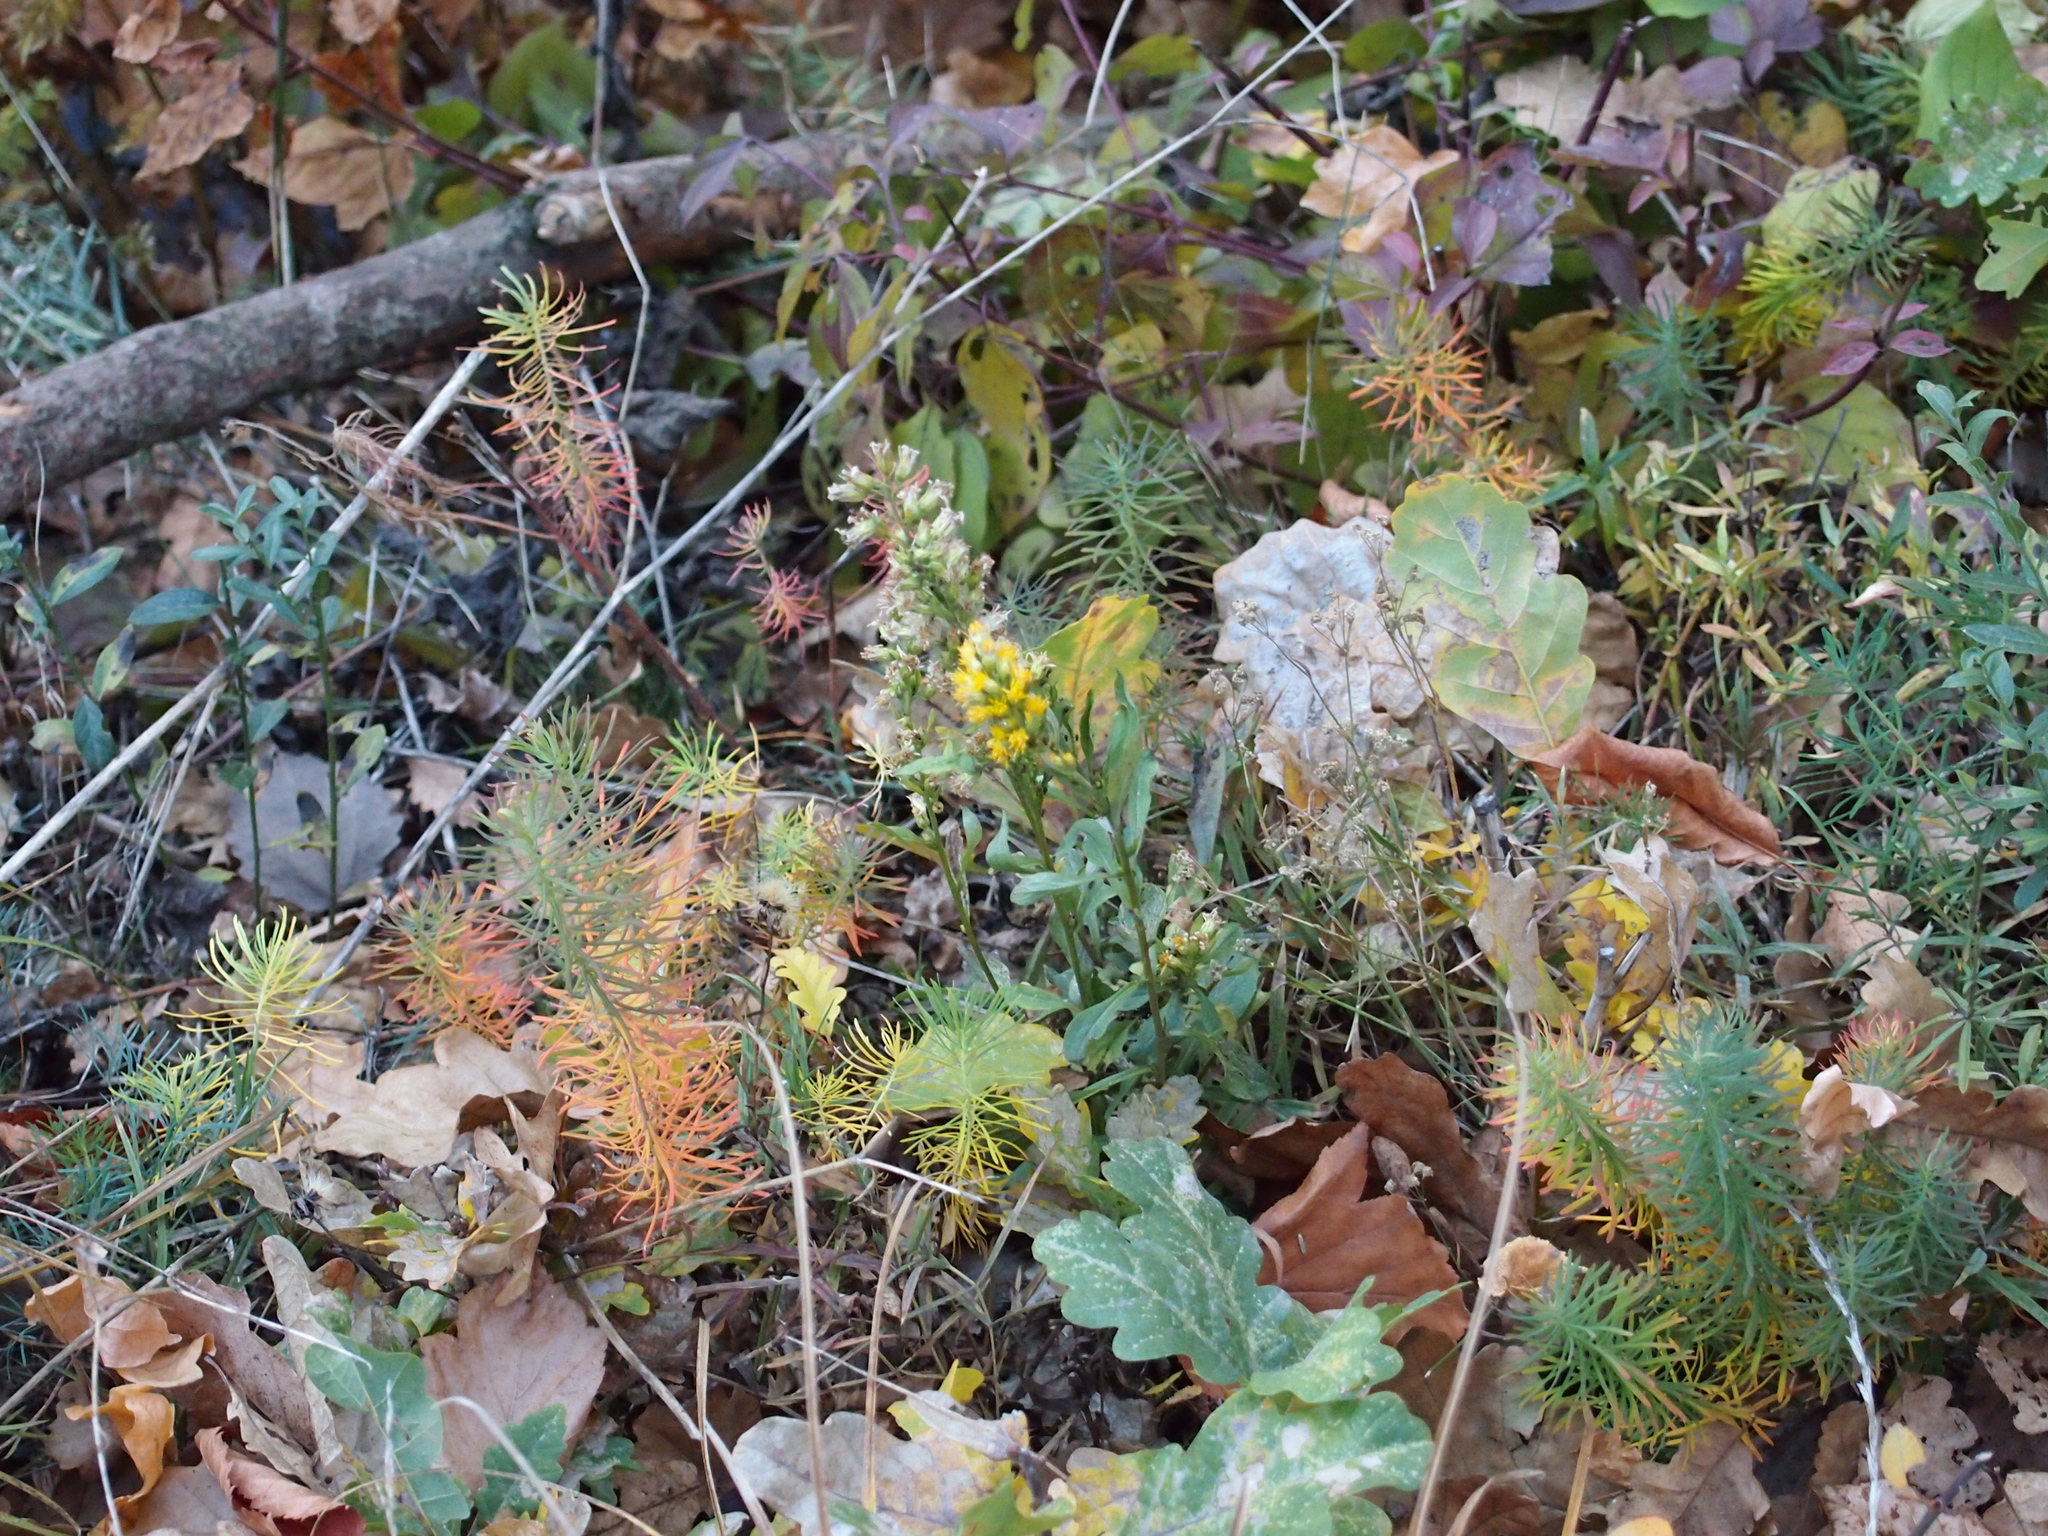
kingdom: Plantae
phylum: Tracheophyta
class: Magnoliopsida
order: Asterales
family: Asteraceae
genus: Solidago
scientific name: Solidago virgaurea
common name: Goldenrod
